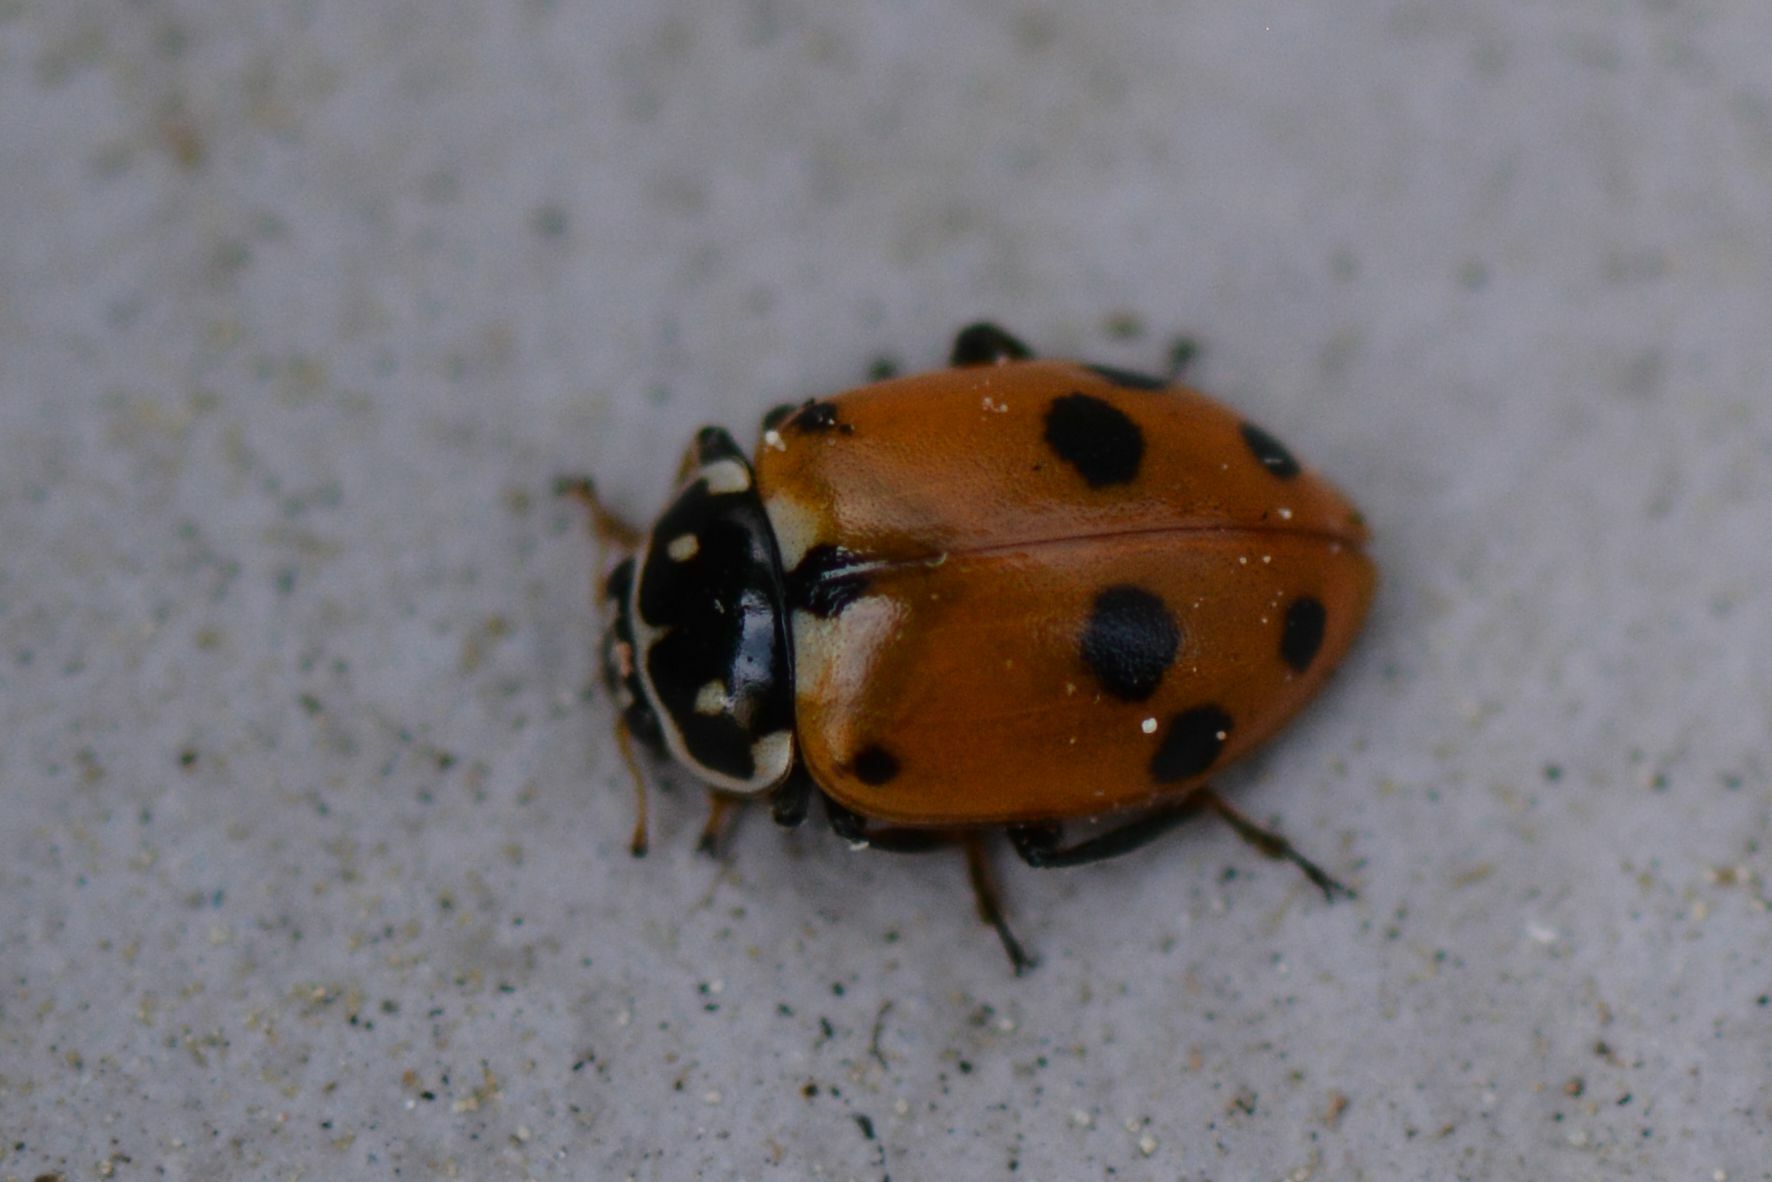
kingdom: Animalia
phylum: Arthropoda
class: Insecta
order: Coleoptera
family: Coccinellidae
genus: Hippodamia
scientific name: Hippodamia variegata
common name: Ladybird beetle
